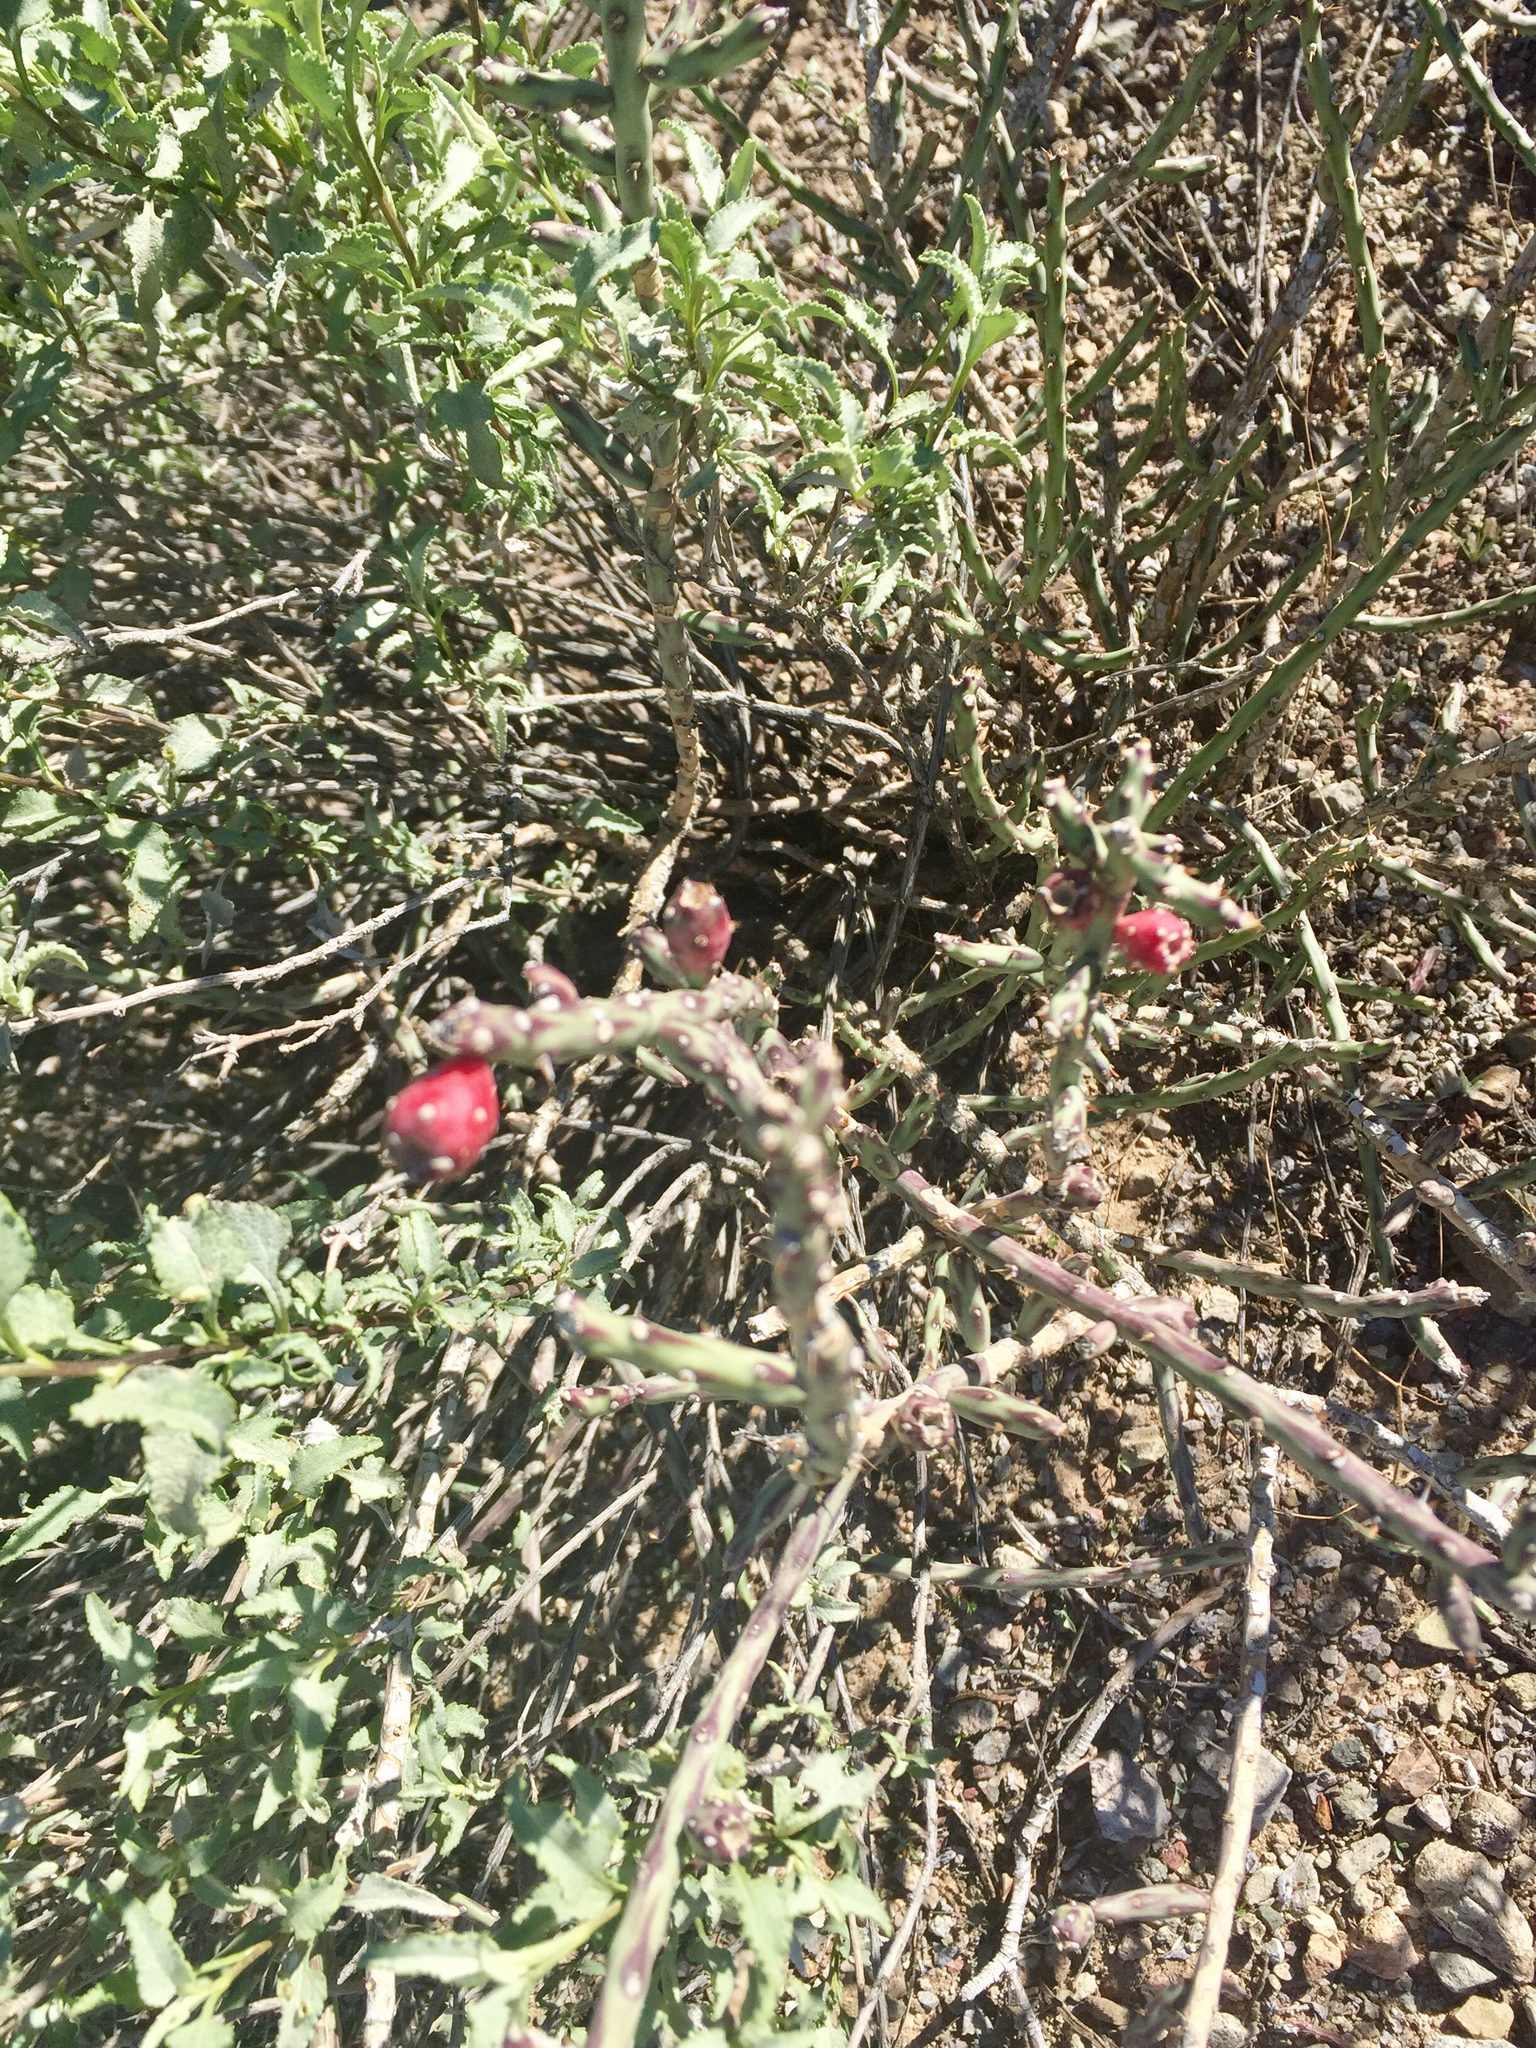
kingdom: Plantae
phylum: Tracheophyta
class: Magnoliopsida
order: Caryophyllales
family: Cactaceae
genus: Cylindropuntia
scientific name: Cylindropuntia leptocaulis
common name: Christmas cactus
